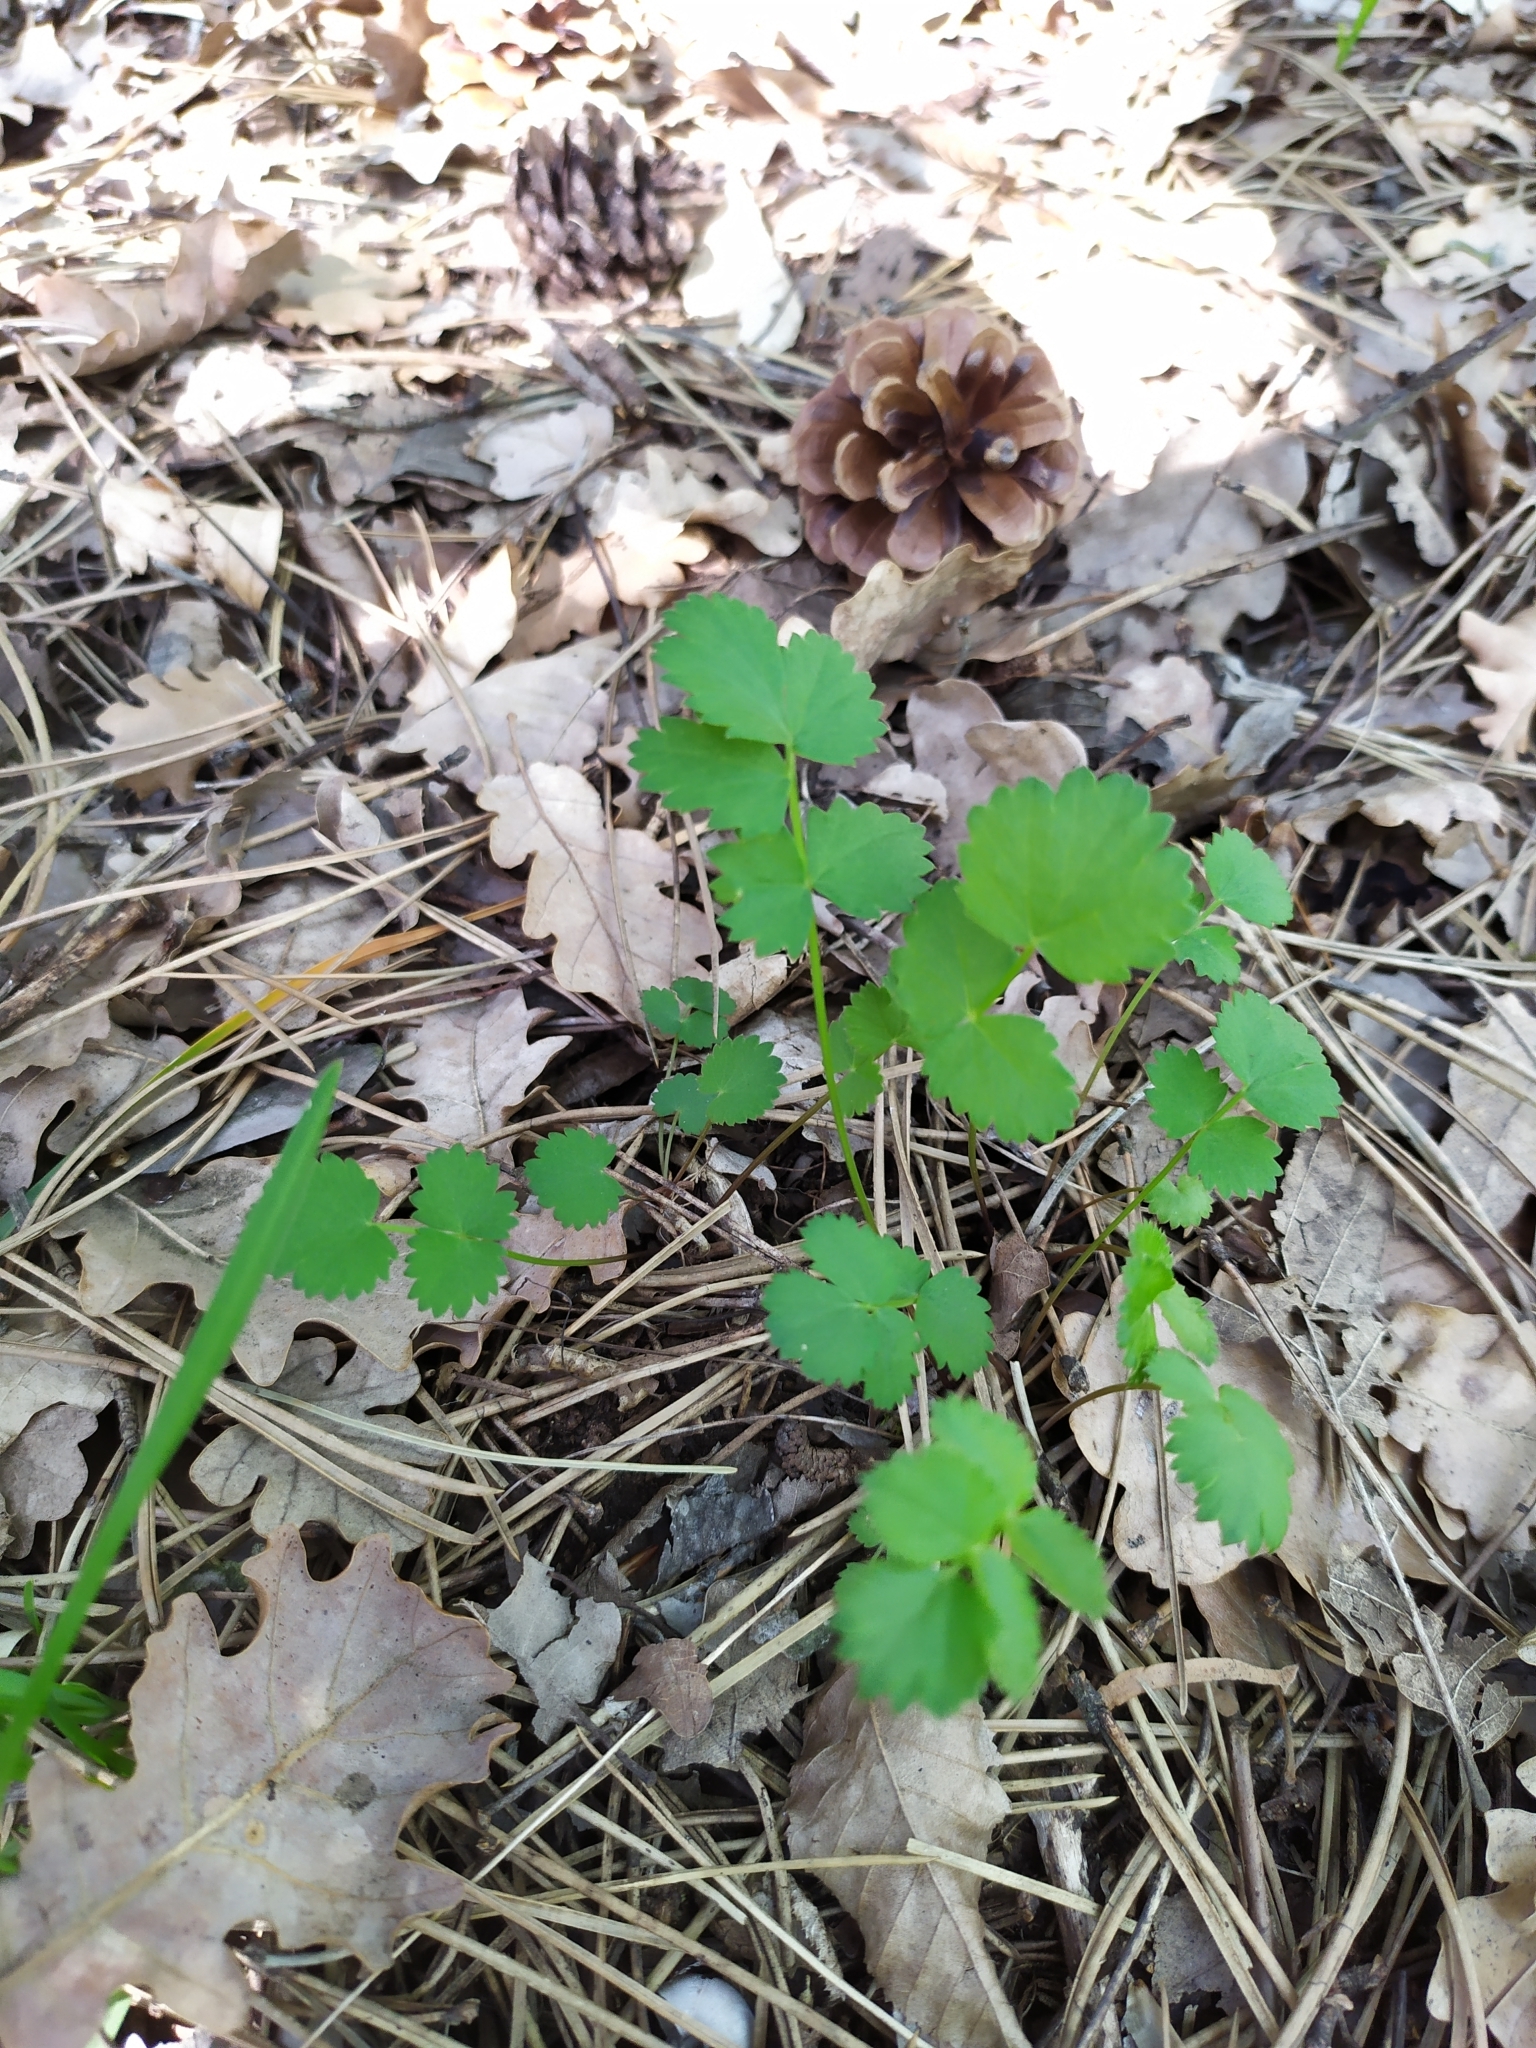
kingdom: Plantae
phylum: Tracheophyta
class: Magnoliopsida
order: Apiales
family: Apiaceae
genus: Pimpinella
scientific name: Pimpinella saxifraga
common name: Burnet-saxifrage
